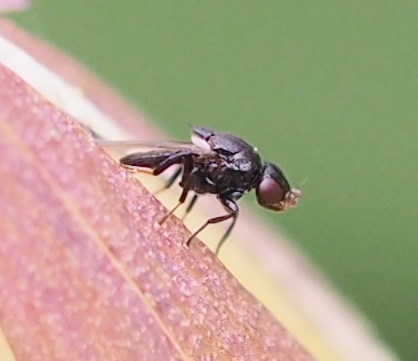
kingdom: Animalia
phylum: Arthropoda
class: Insecta
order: Diptera
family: Chloropidae
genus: Polyodaspis
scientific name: Polyodaspis ruficornis
